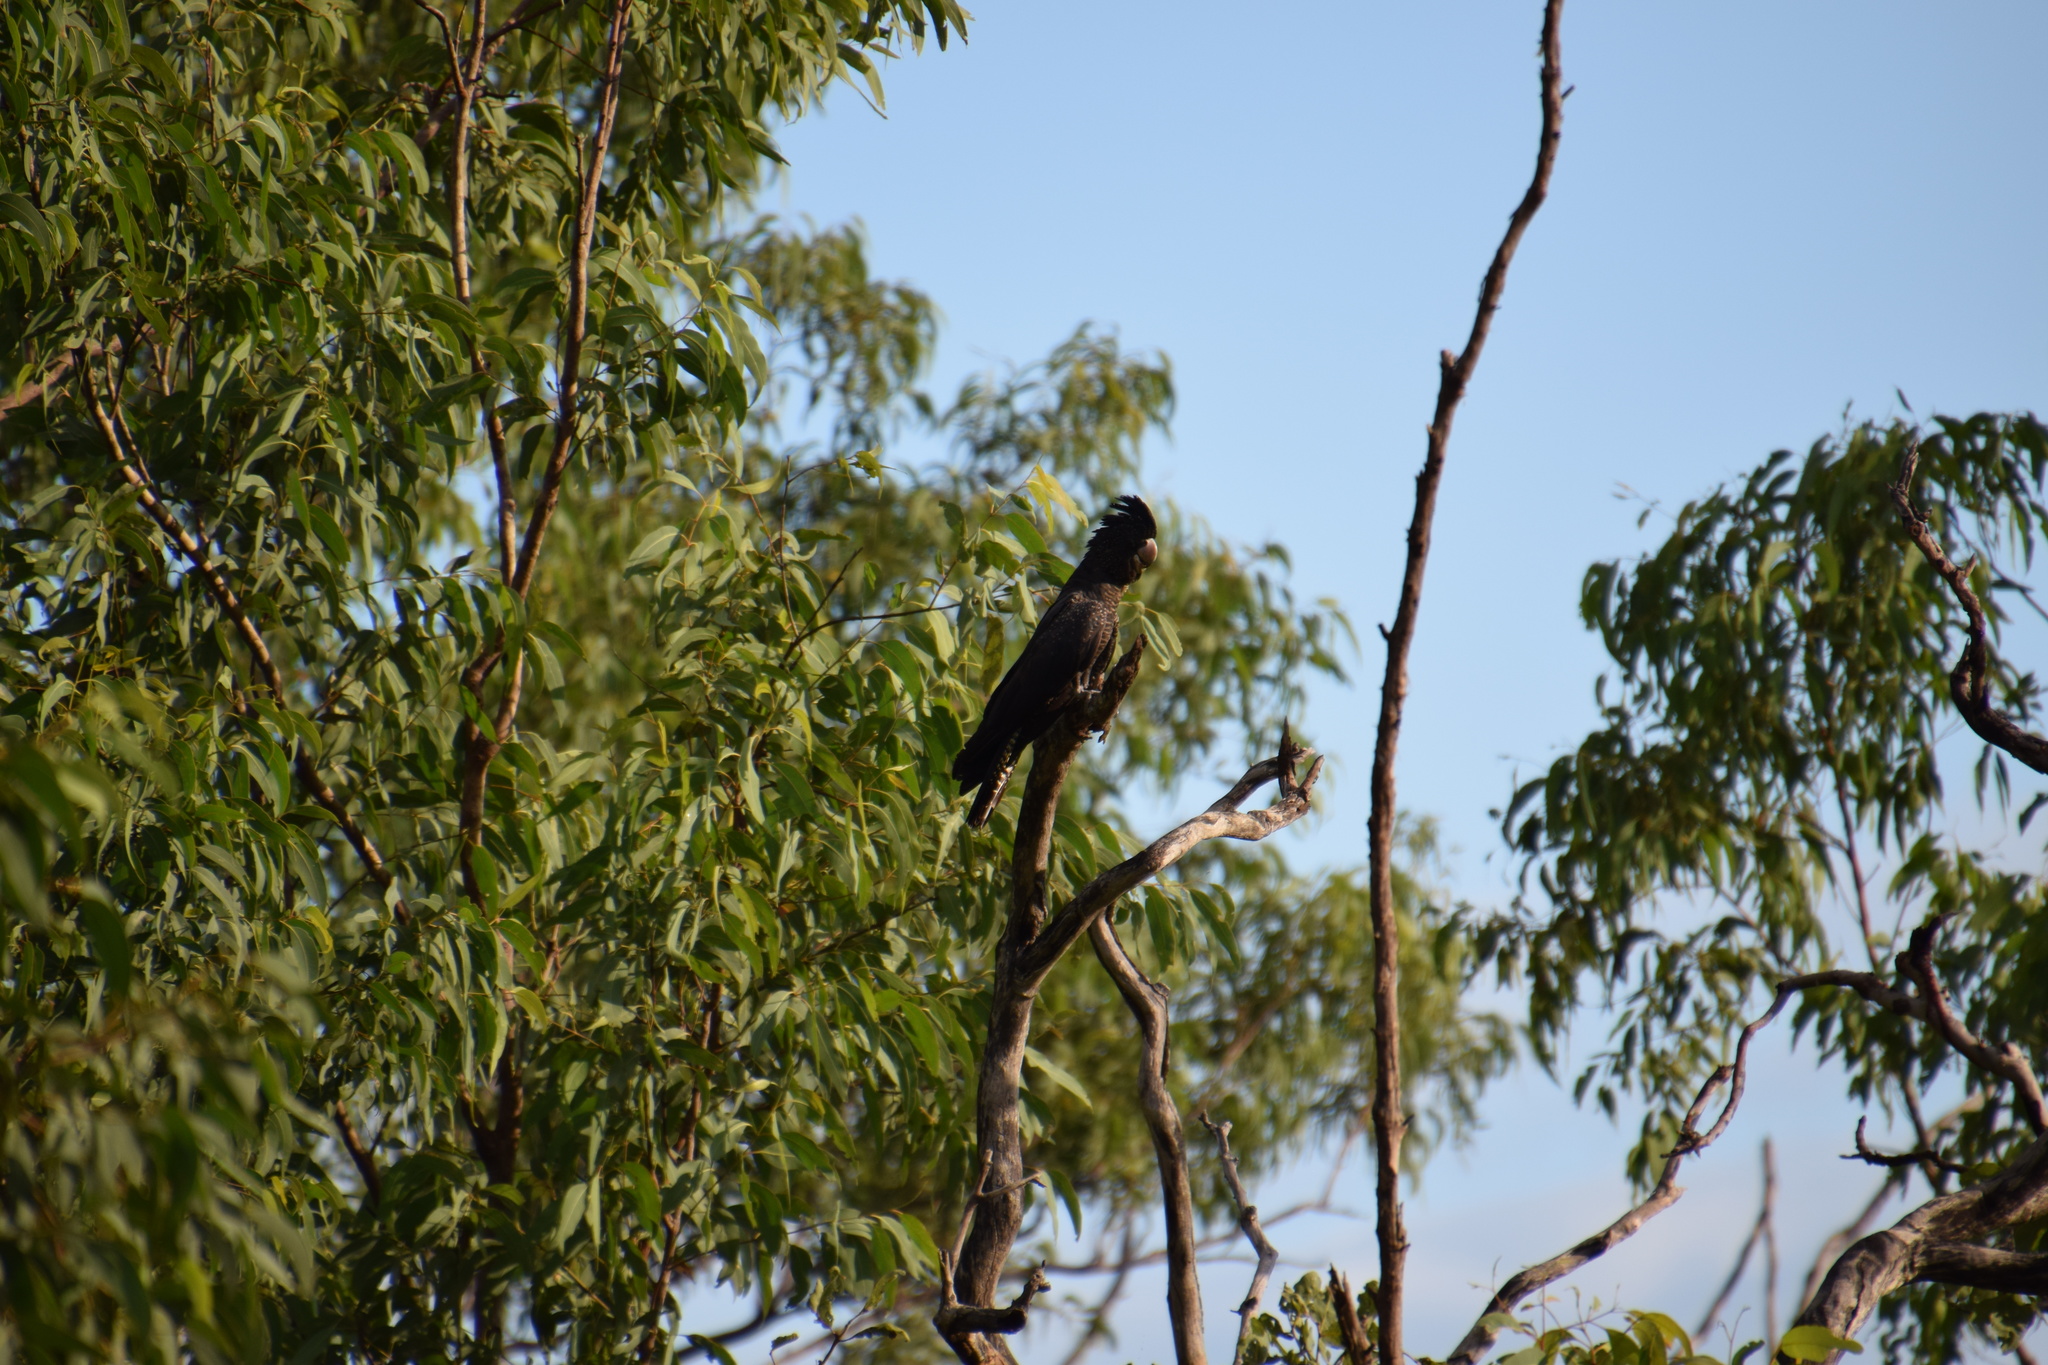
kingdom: Animalia
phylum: Chordata
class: Aves
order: Psittaciformes
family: Psittacidae
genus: Calyptorhynchus
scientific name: Calyptorhynchus banksii
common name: Red-tailed black cockatoo
